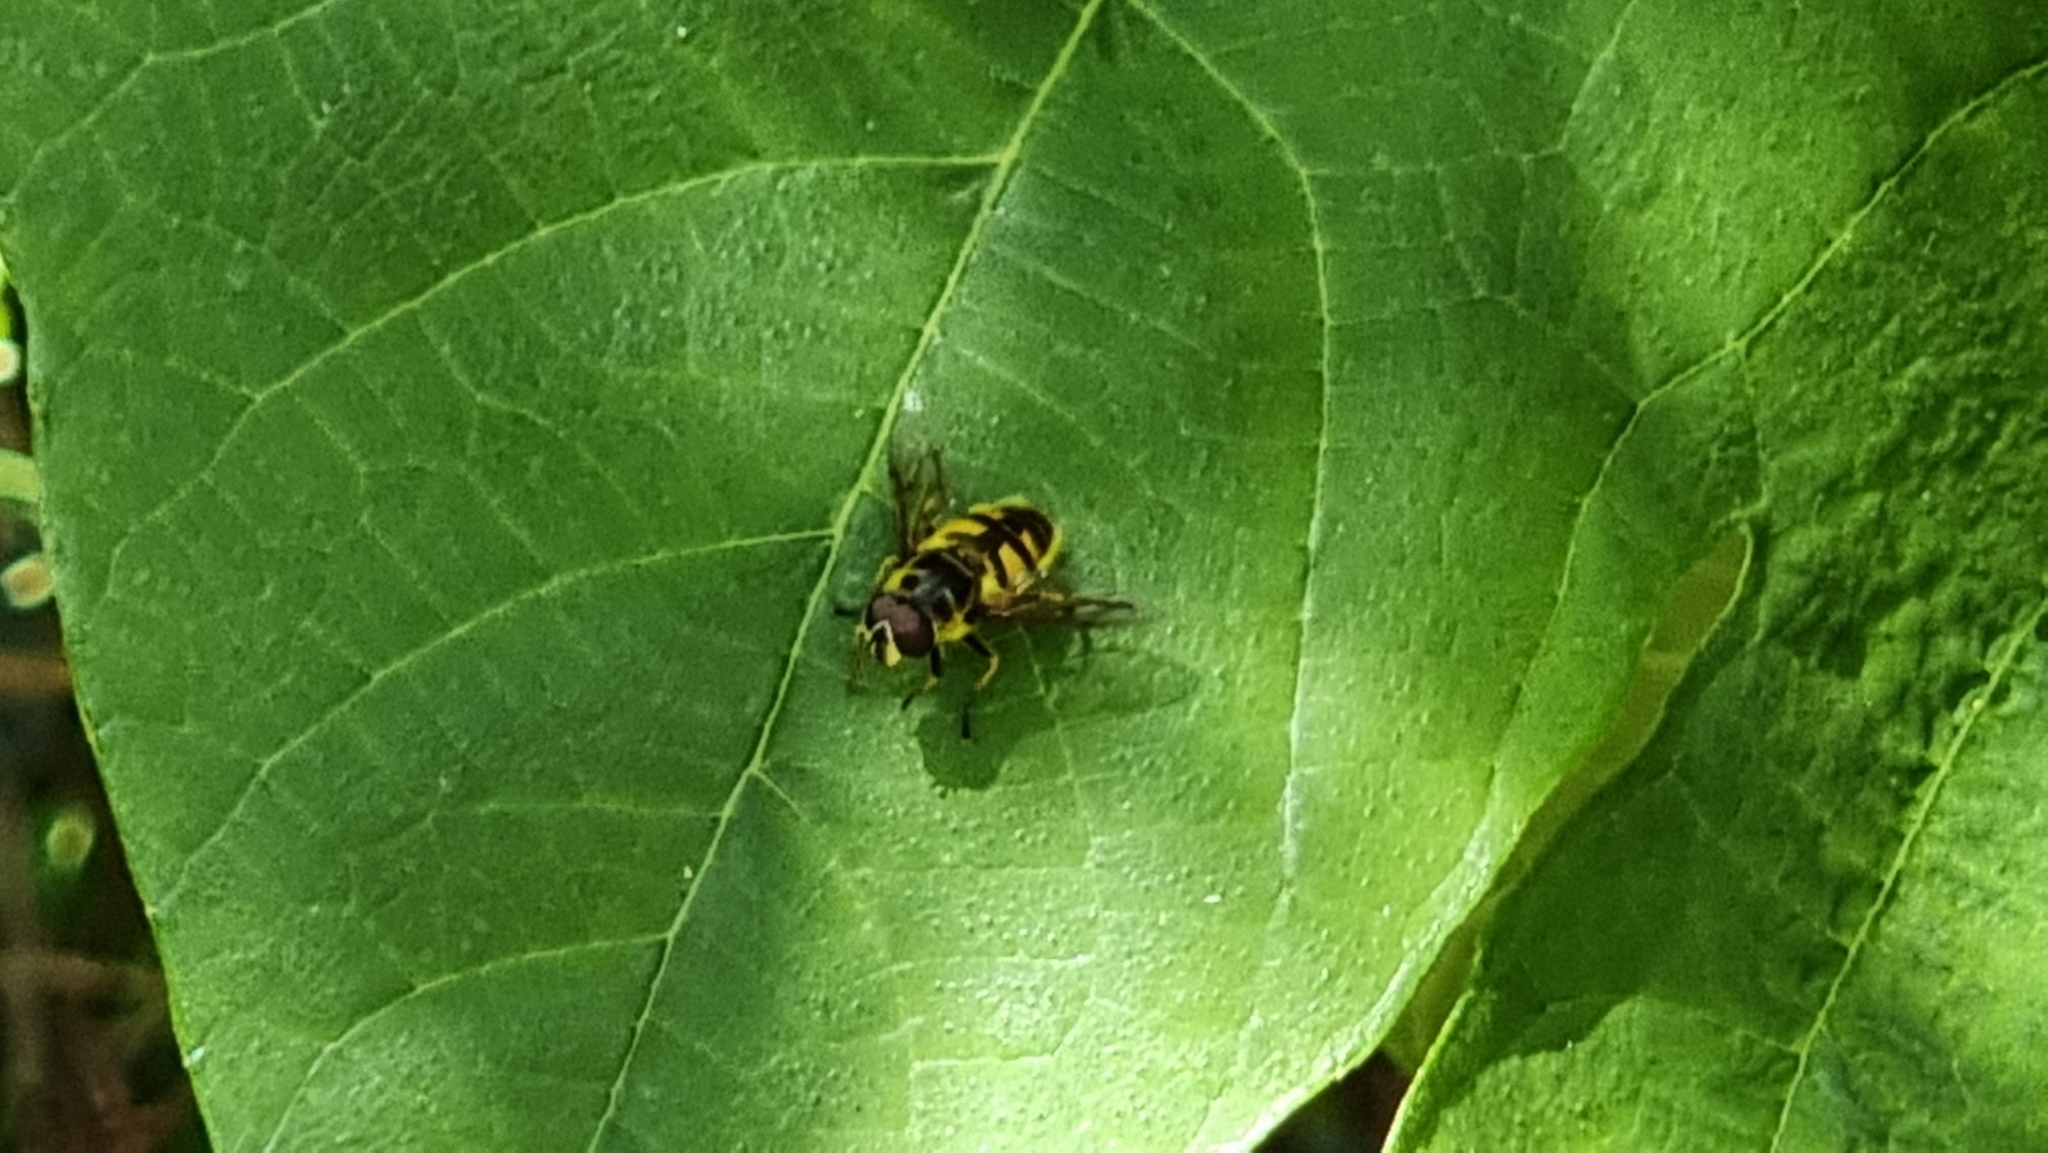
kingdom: Animalia
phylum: Arthropoda
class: Insecta
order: Diptera
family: Syrphidae
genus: Myathropa
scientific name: Myathropa florea
